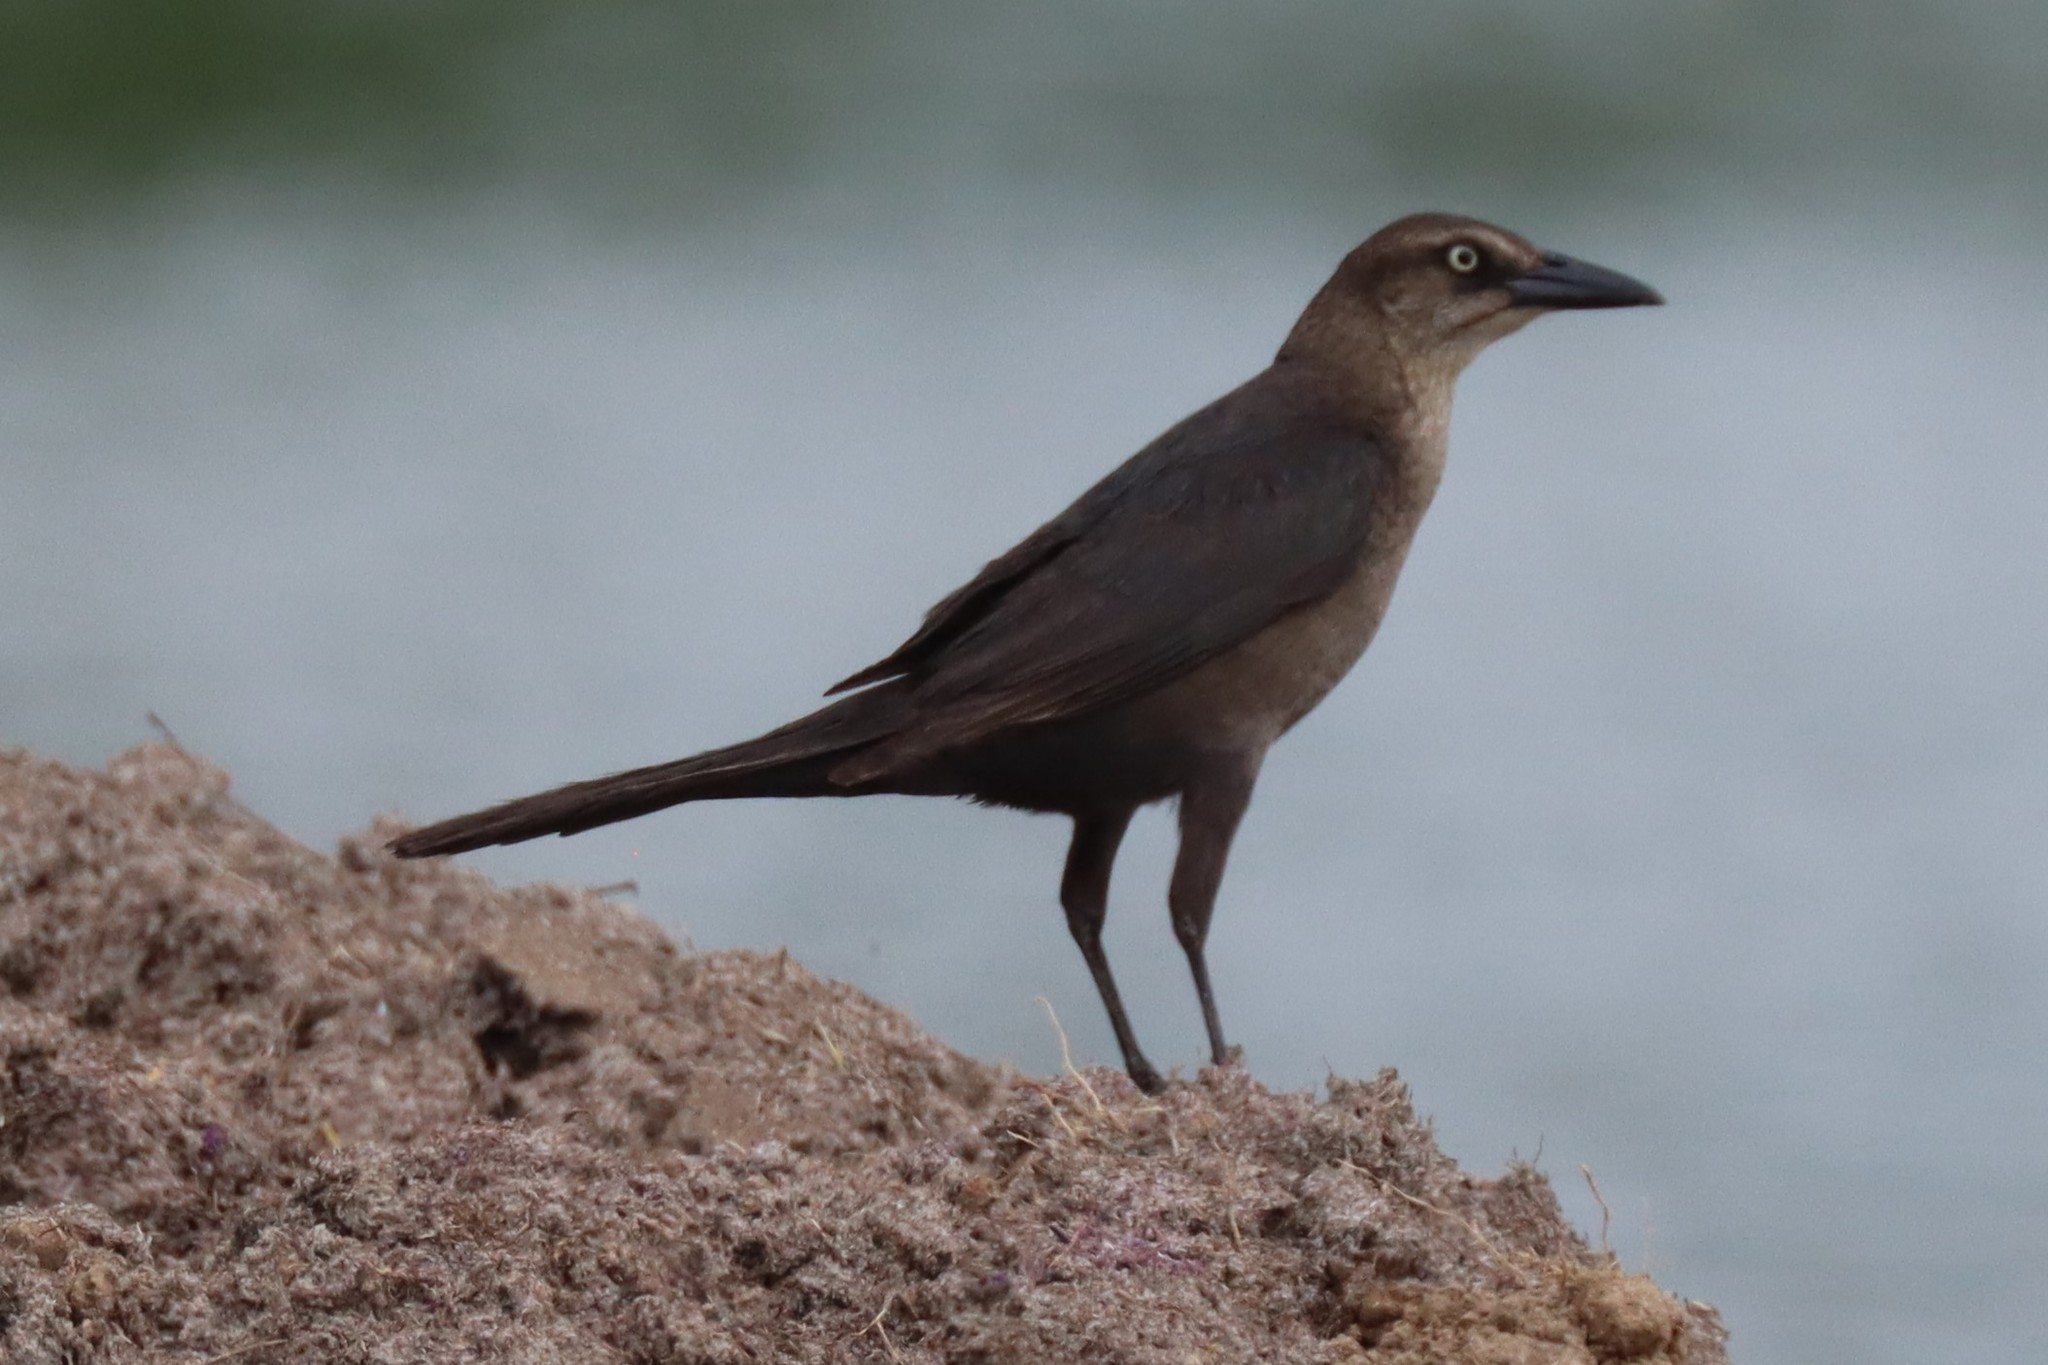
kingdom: Animalia
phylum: Chordata
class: Aves
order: Passeriformes
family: Icteridae
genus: Quiscalus
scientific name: Quiscalus mexicanus
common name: Great-tailed grackle
